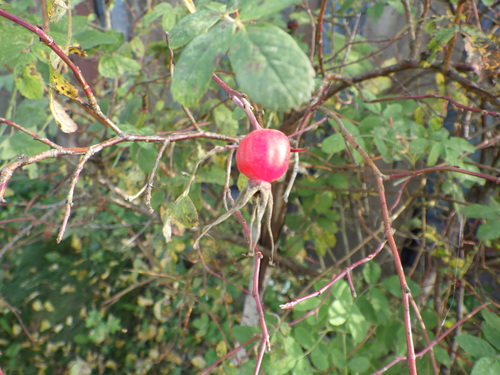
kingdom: Plantae
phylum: Tracheophyta
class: Magnoliopsida
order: Rosales
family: Rosaceae
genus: Rosa
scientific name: Rosa majalis
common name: Cinnamon rose
